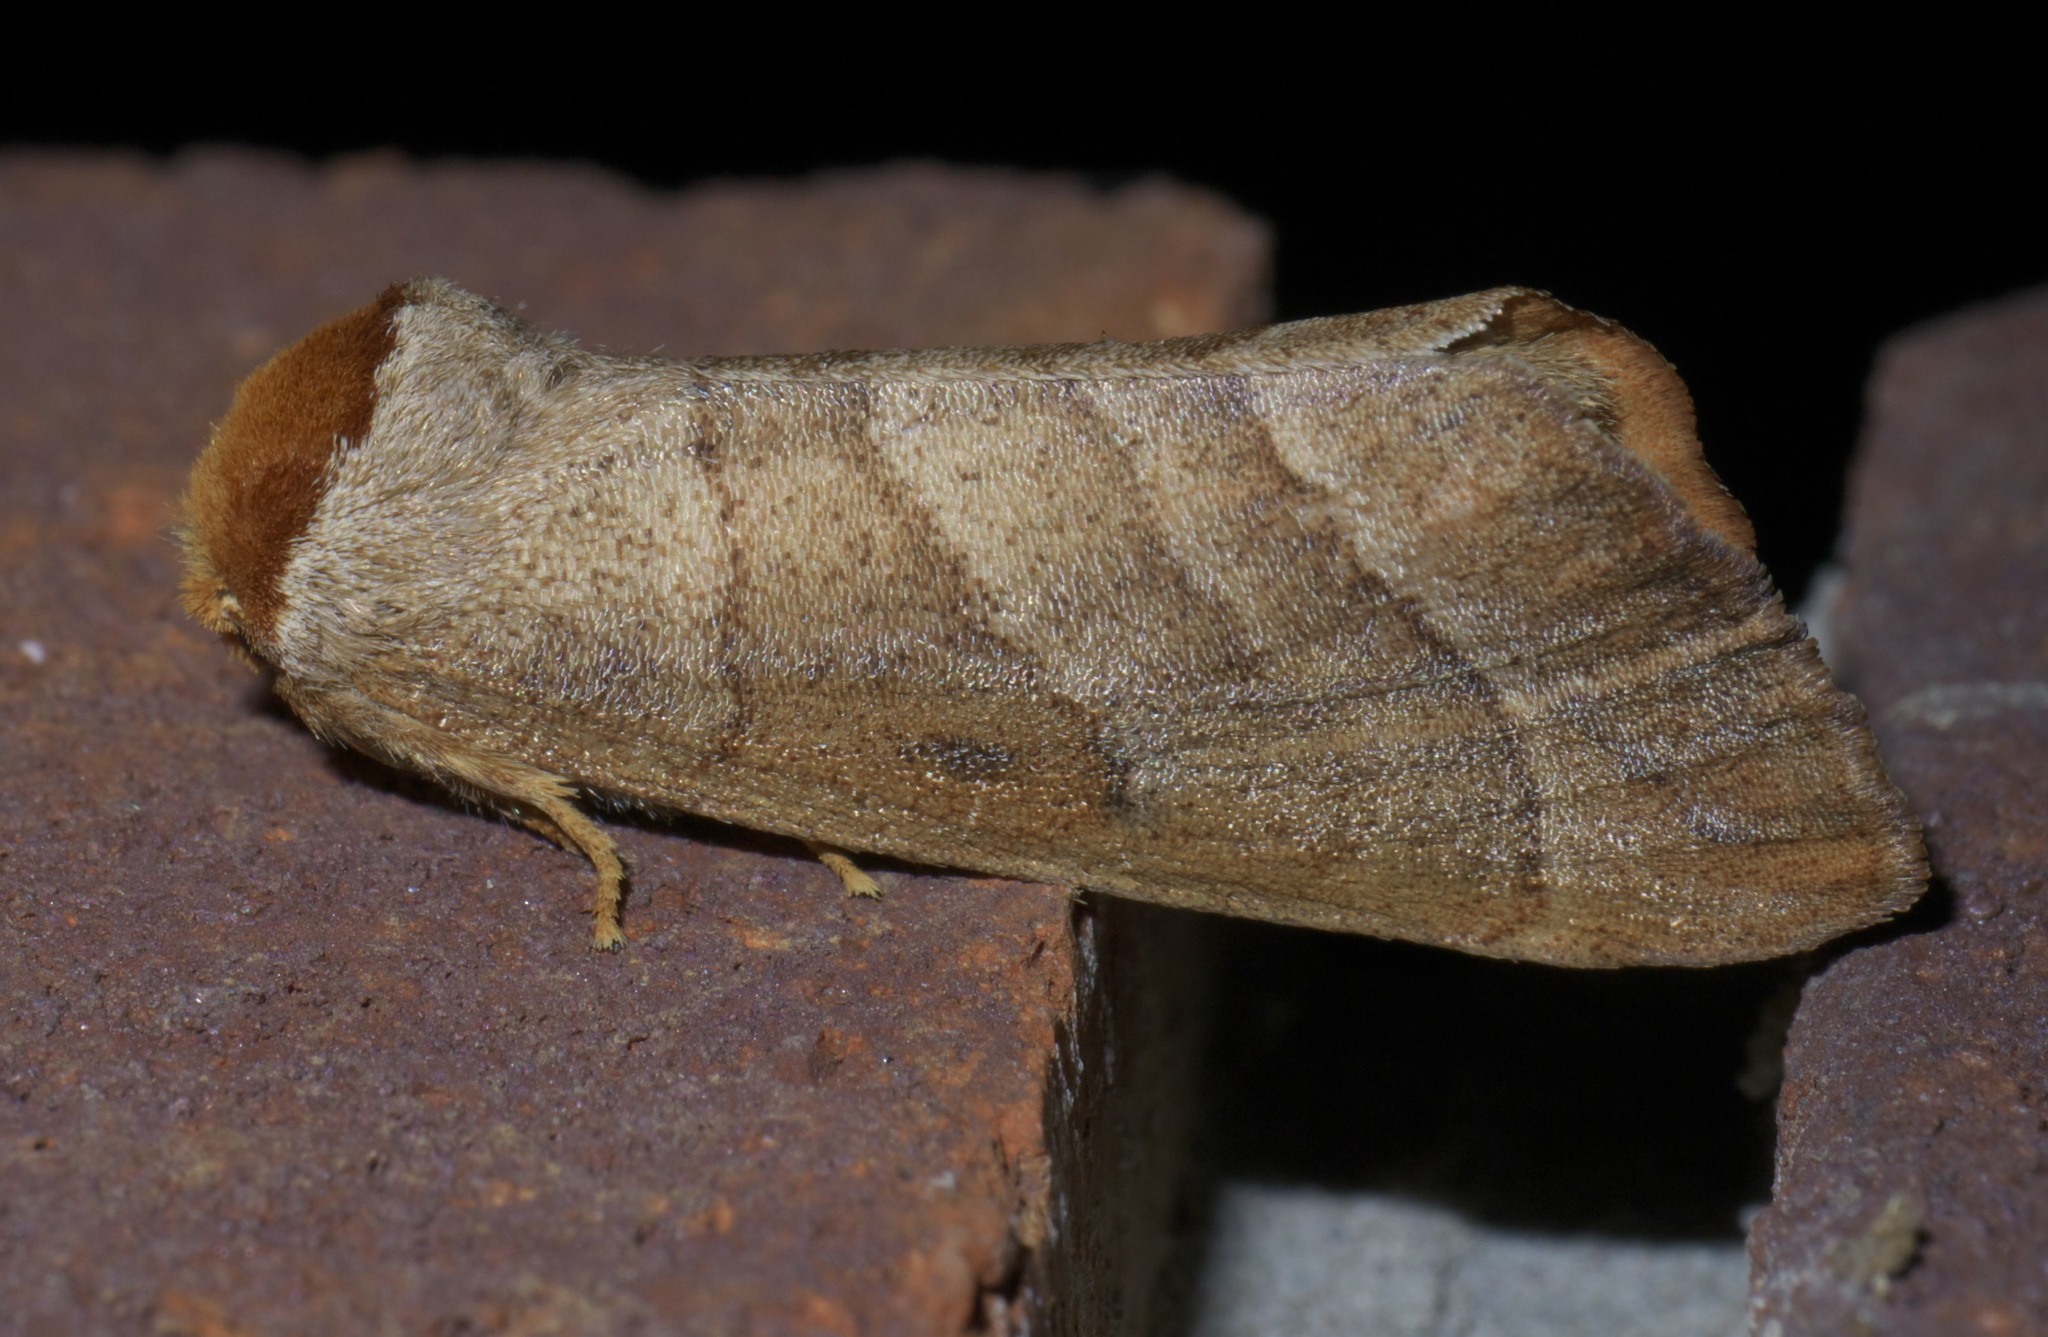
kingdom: Animalia
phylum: Arthropoda
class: Insecta
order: Lepidoptera
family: Notodontidae
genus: Datana
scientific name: Datana integerrima
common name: Walnut caterpillar
